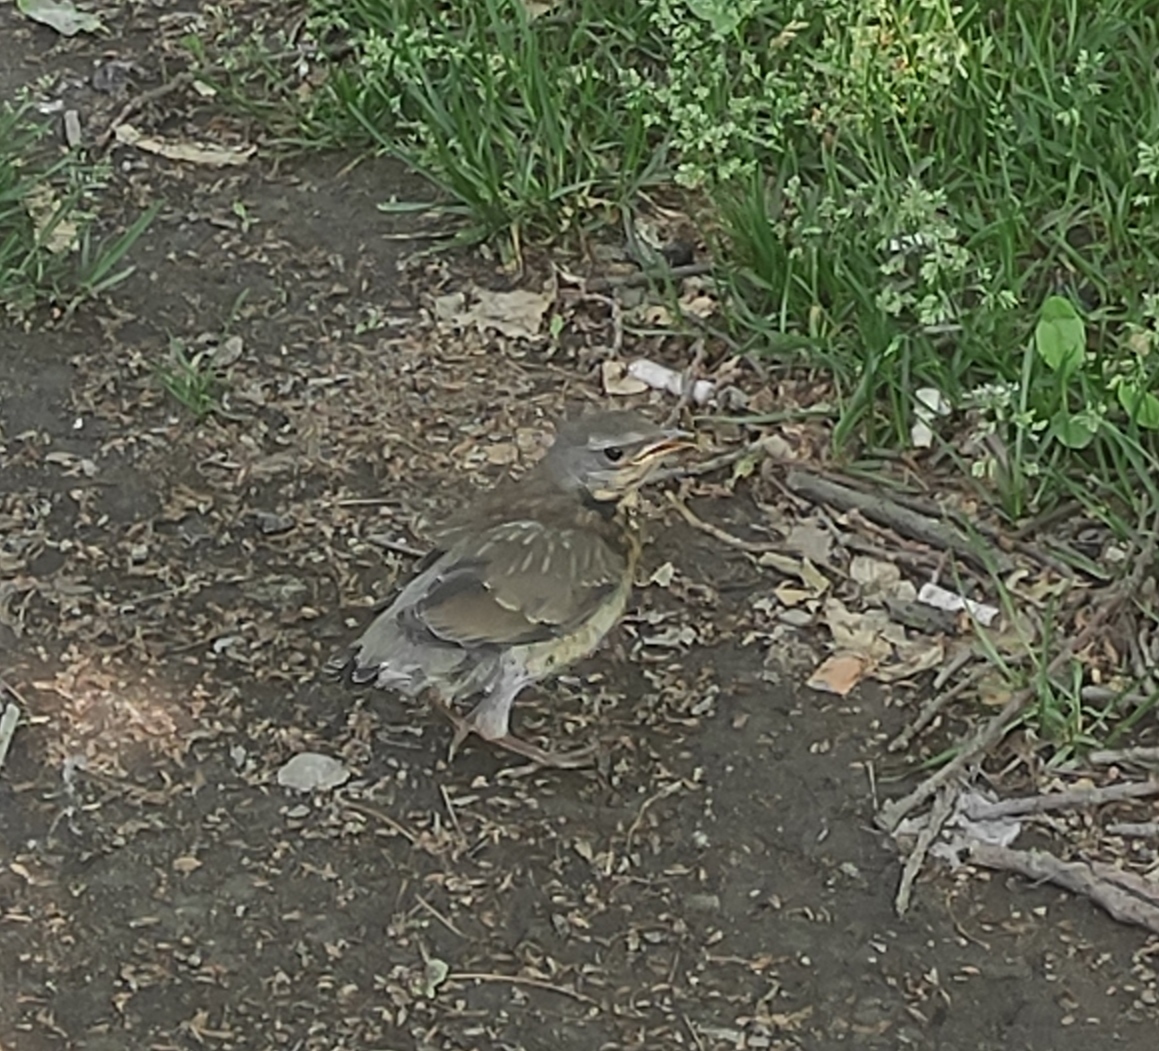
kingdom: Animalia
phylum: Chordata
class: Aves
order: Passeriformes
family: Turdidae
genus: Turdus
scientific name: Turdus pilaris
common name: Fieldfare
